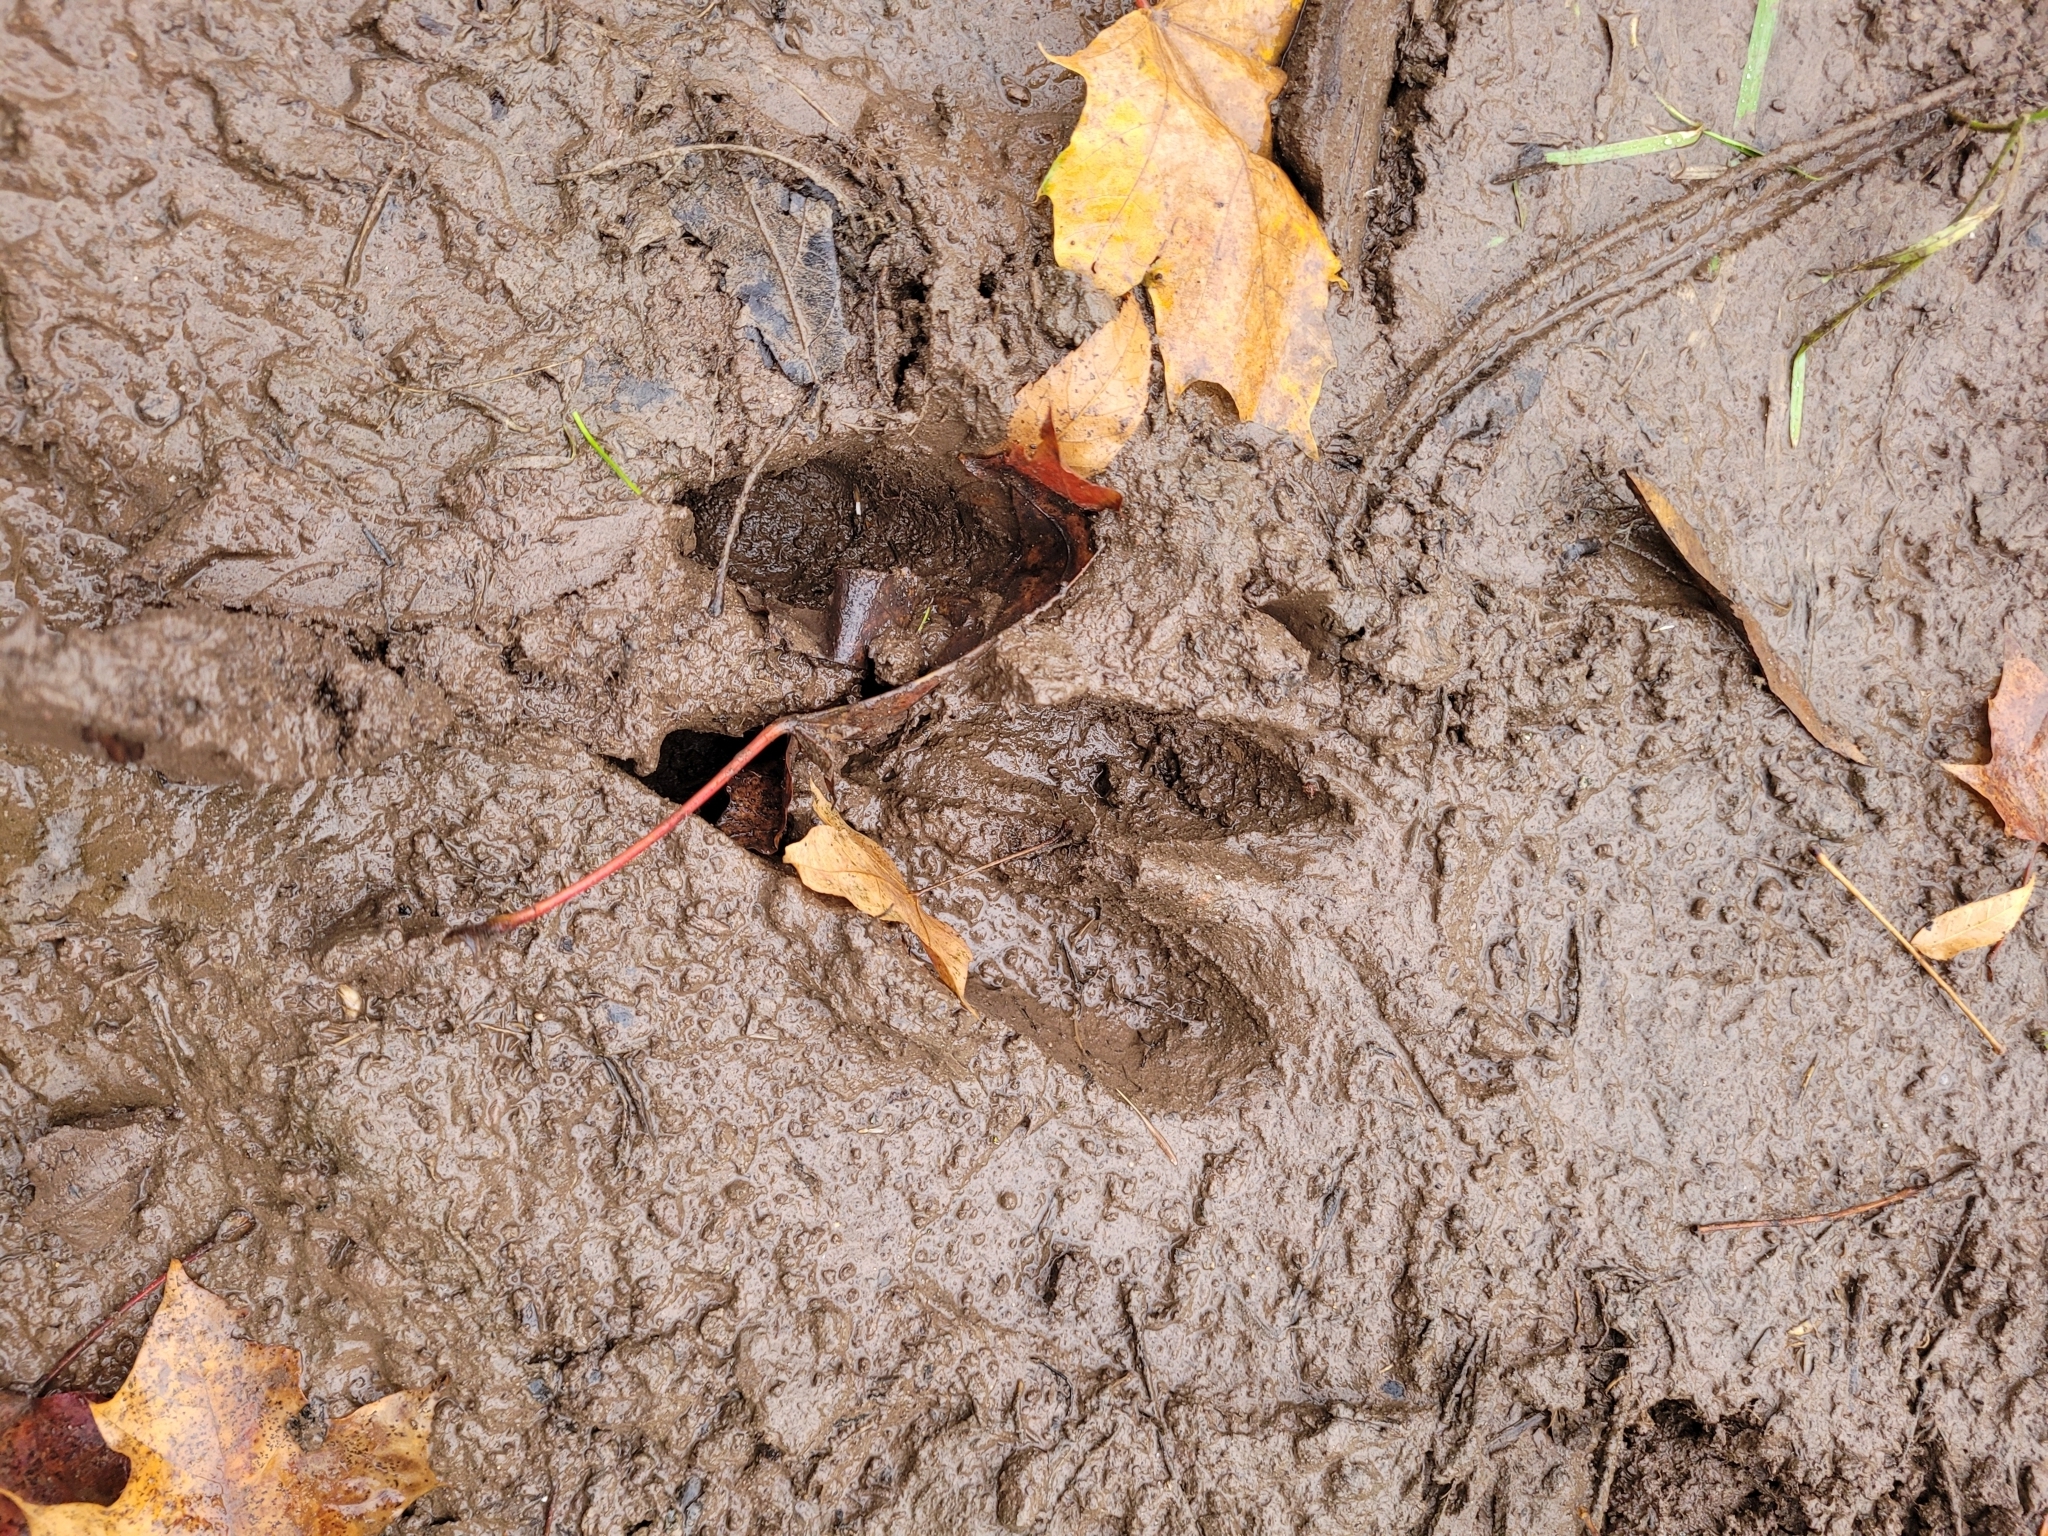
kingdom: Animalia
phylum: Chordata
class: Mammalia
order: Artiodactyla
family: Cervidae
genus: Odocoileus
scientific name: Odocoileus virginianus
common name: White-tailed deer
